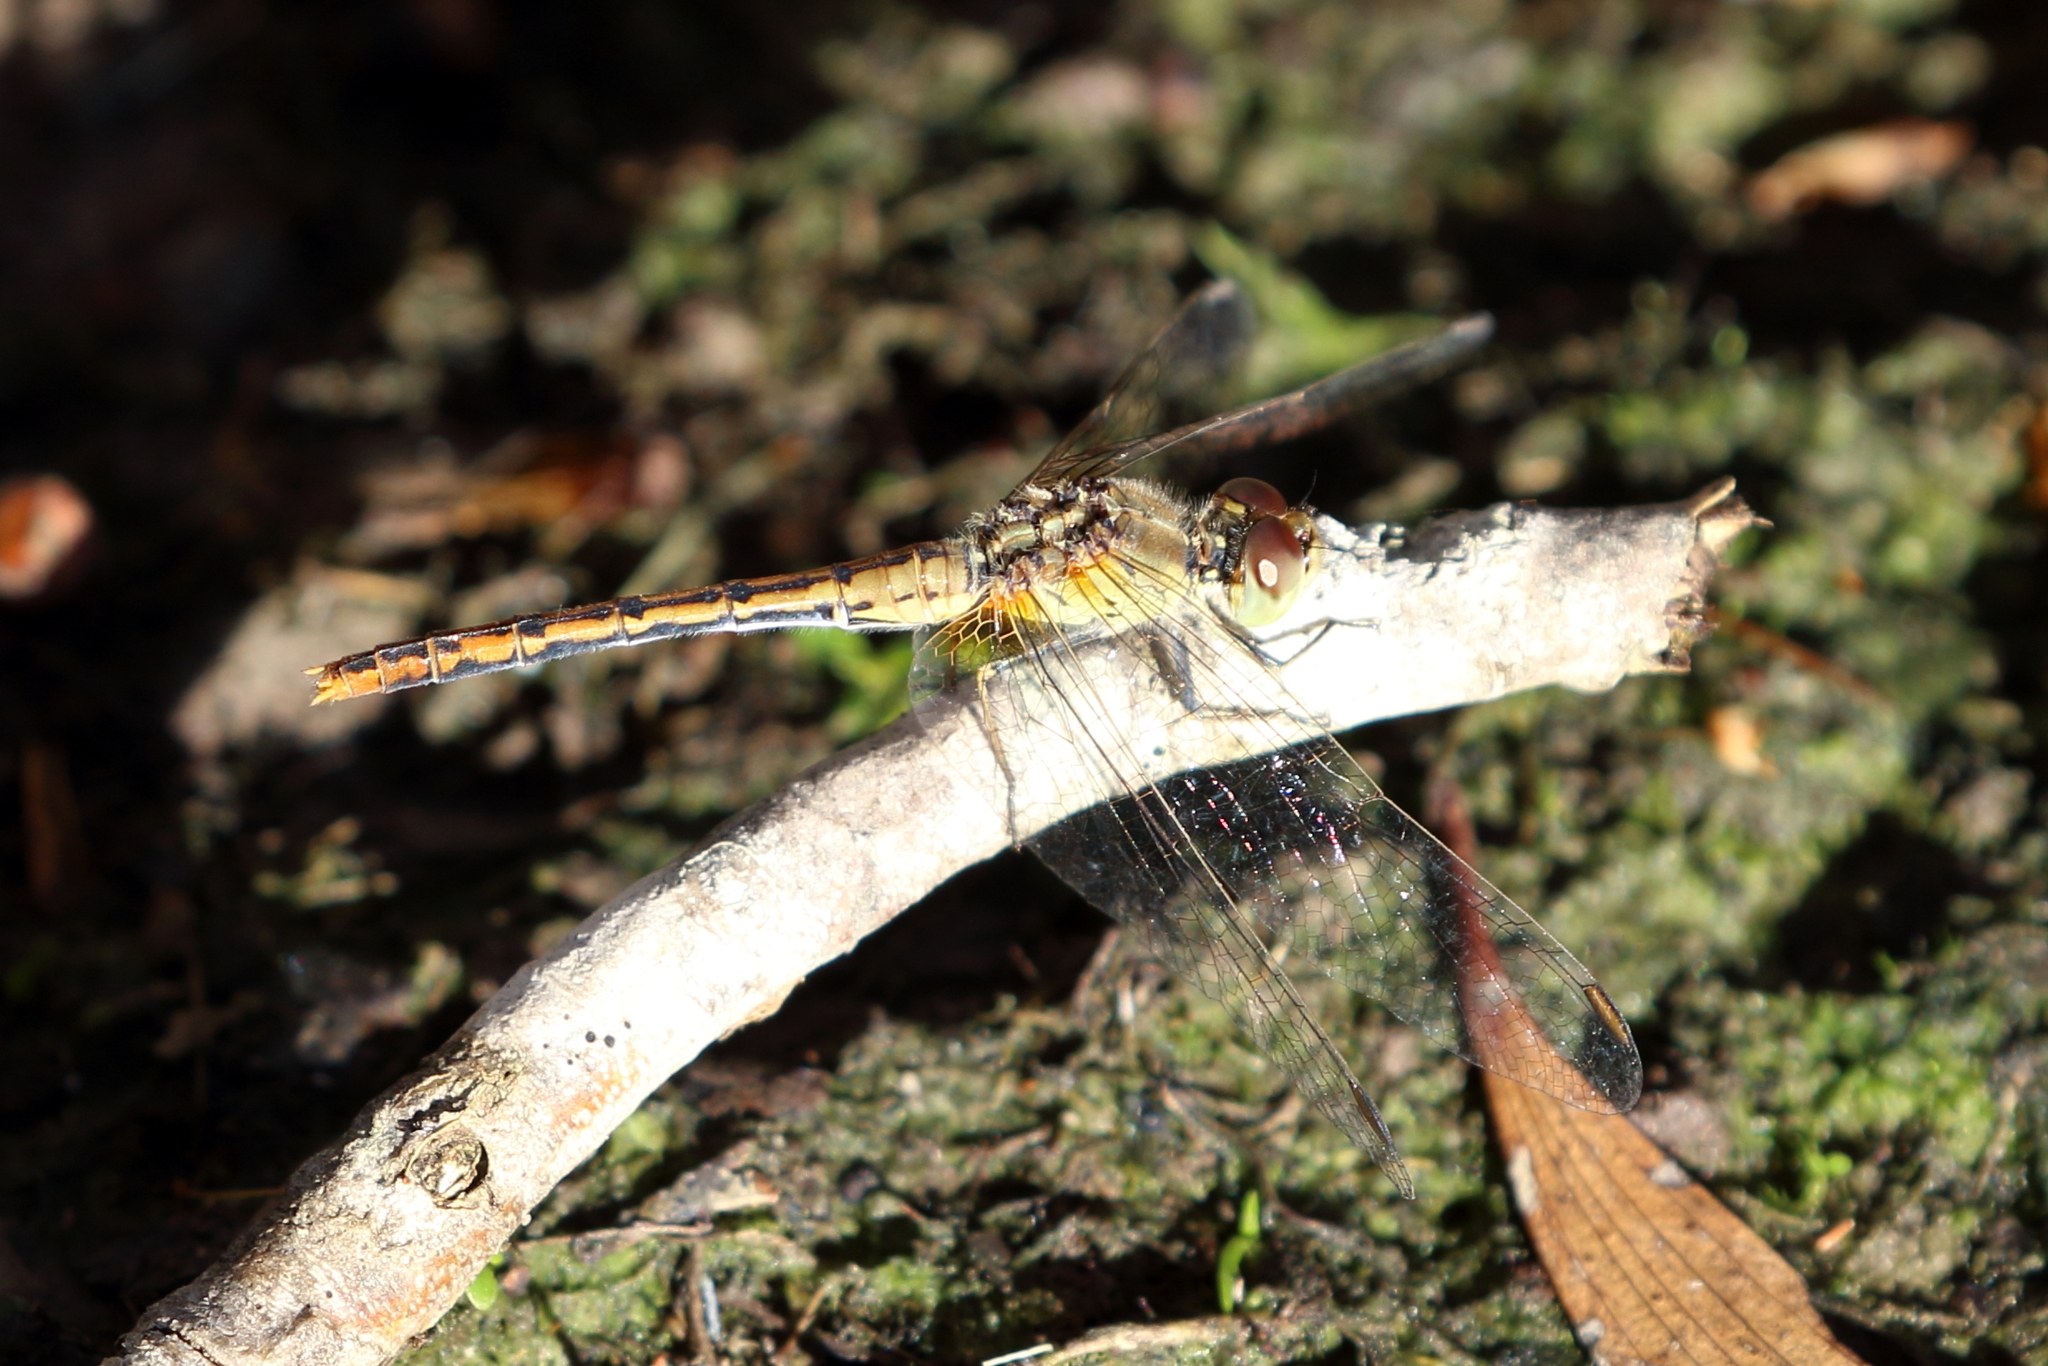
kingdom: Animalia
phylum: Arthropoda
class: Insecta
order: Odonata
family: Libellulidae
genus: Diplacodes
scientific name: Diplacodes bipunctata
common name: Red percher dragonfly
